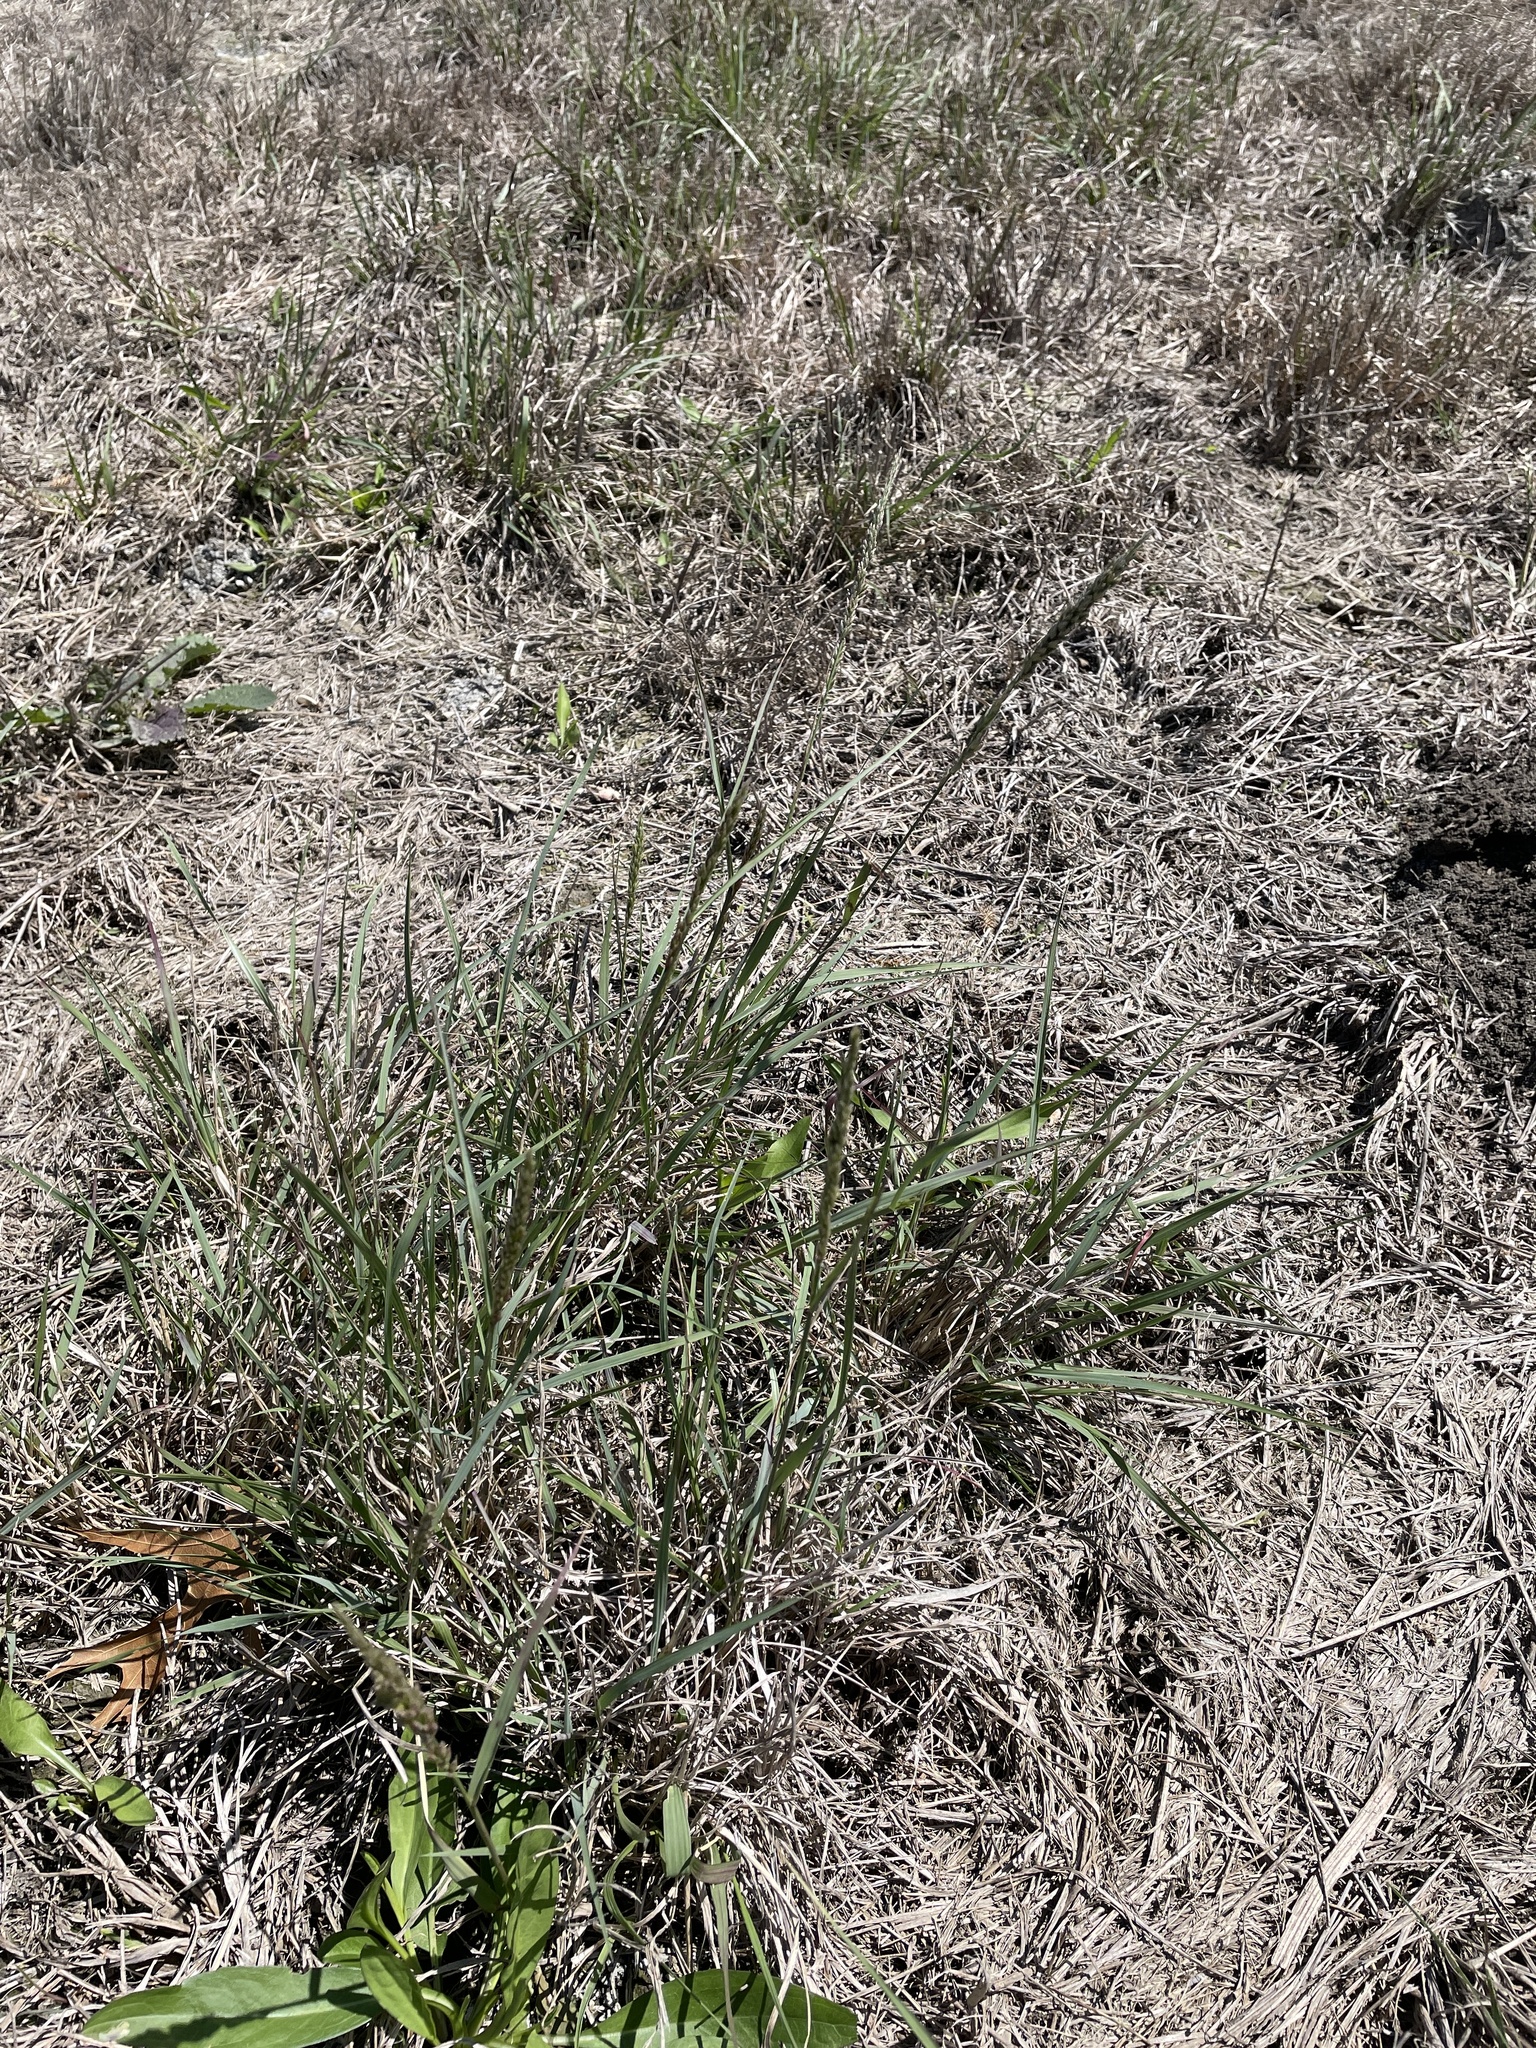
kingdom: Plantae
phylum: Tracheophyta
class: Liliopsida
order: Poales
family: Poaceae
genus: Tridens
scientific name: Tridens albescens
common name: White tridens
